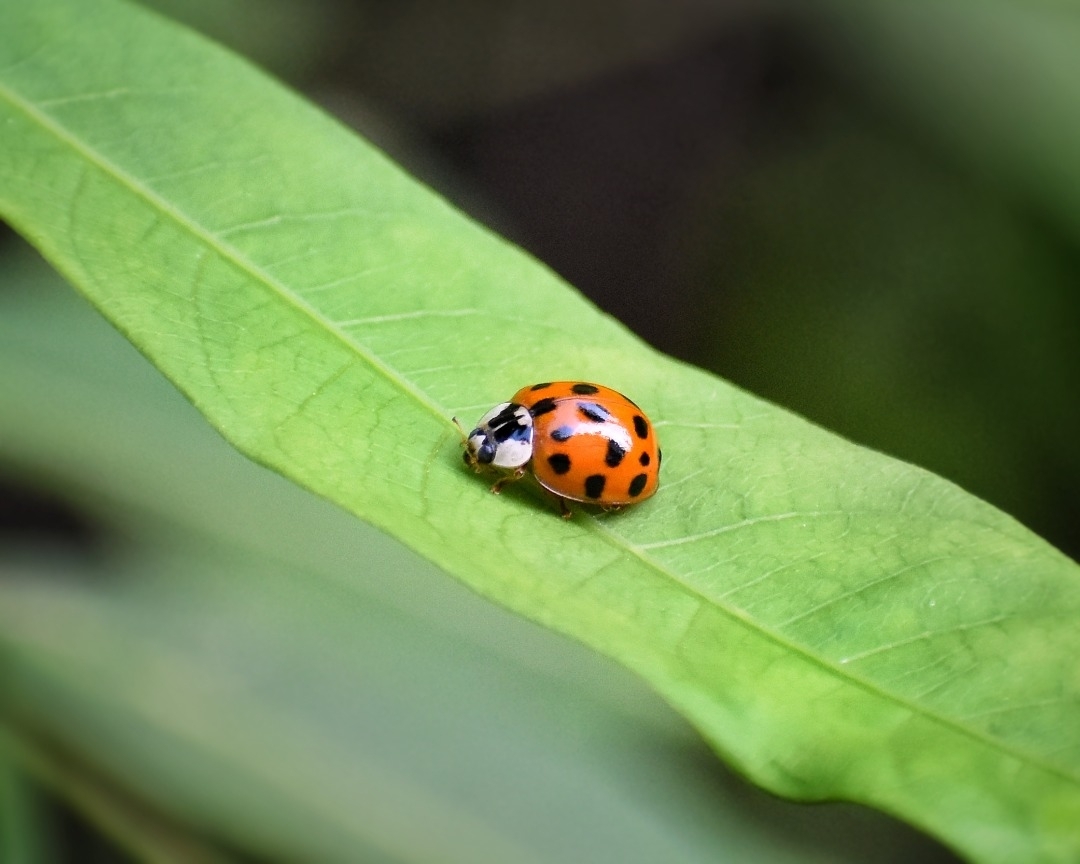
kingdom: Animalia
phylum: Arthropoda
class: Insecta
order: Coleoptera
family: Coccinellidae
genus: Harmonia
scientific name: Harmonia axyridis
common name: Harlequin ladybird
